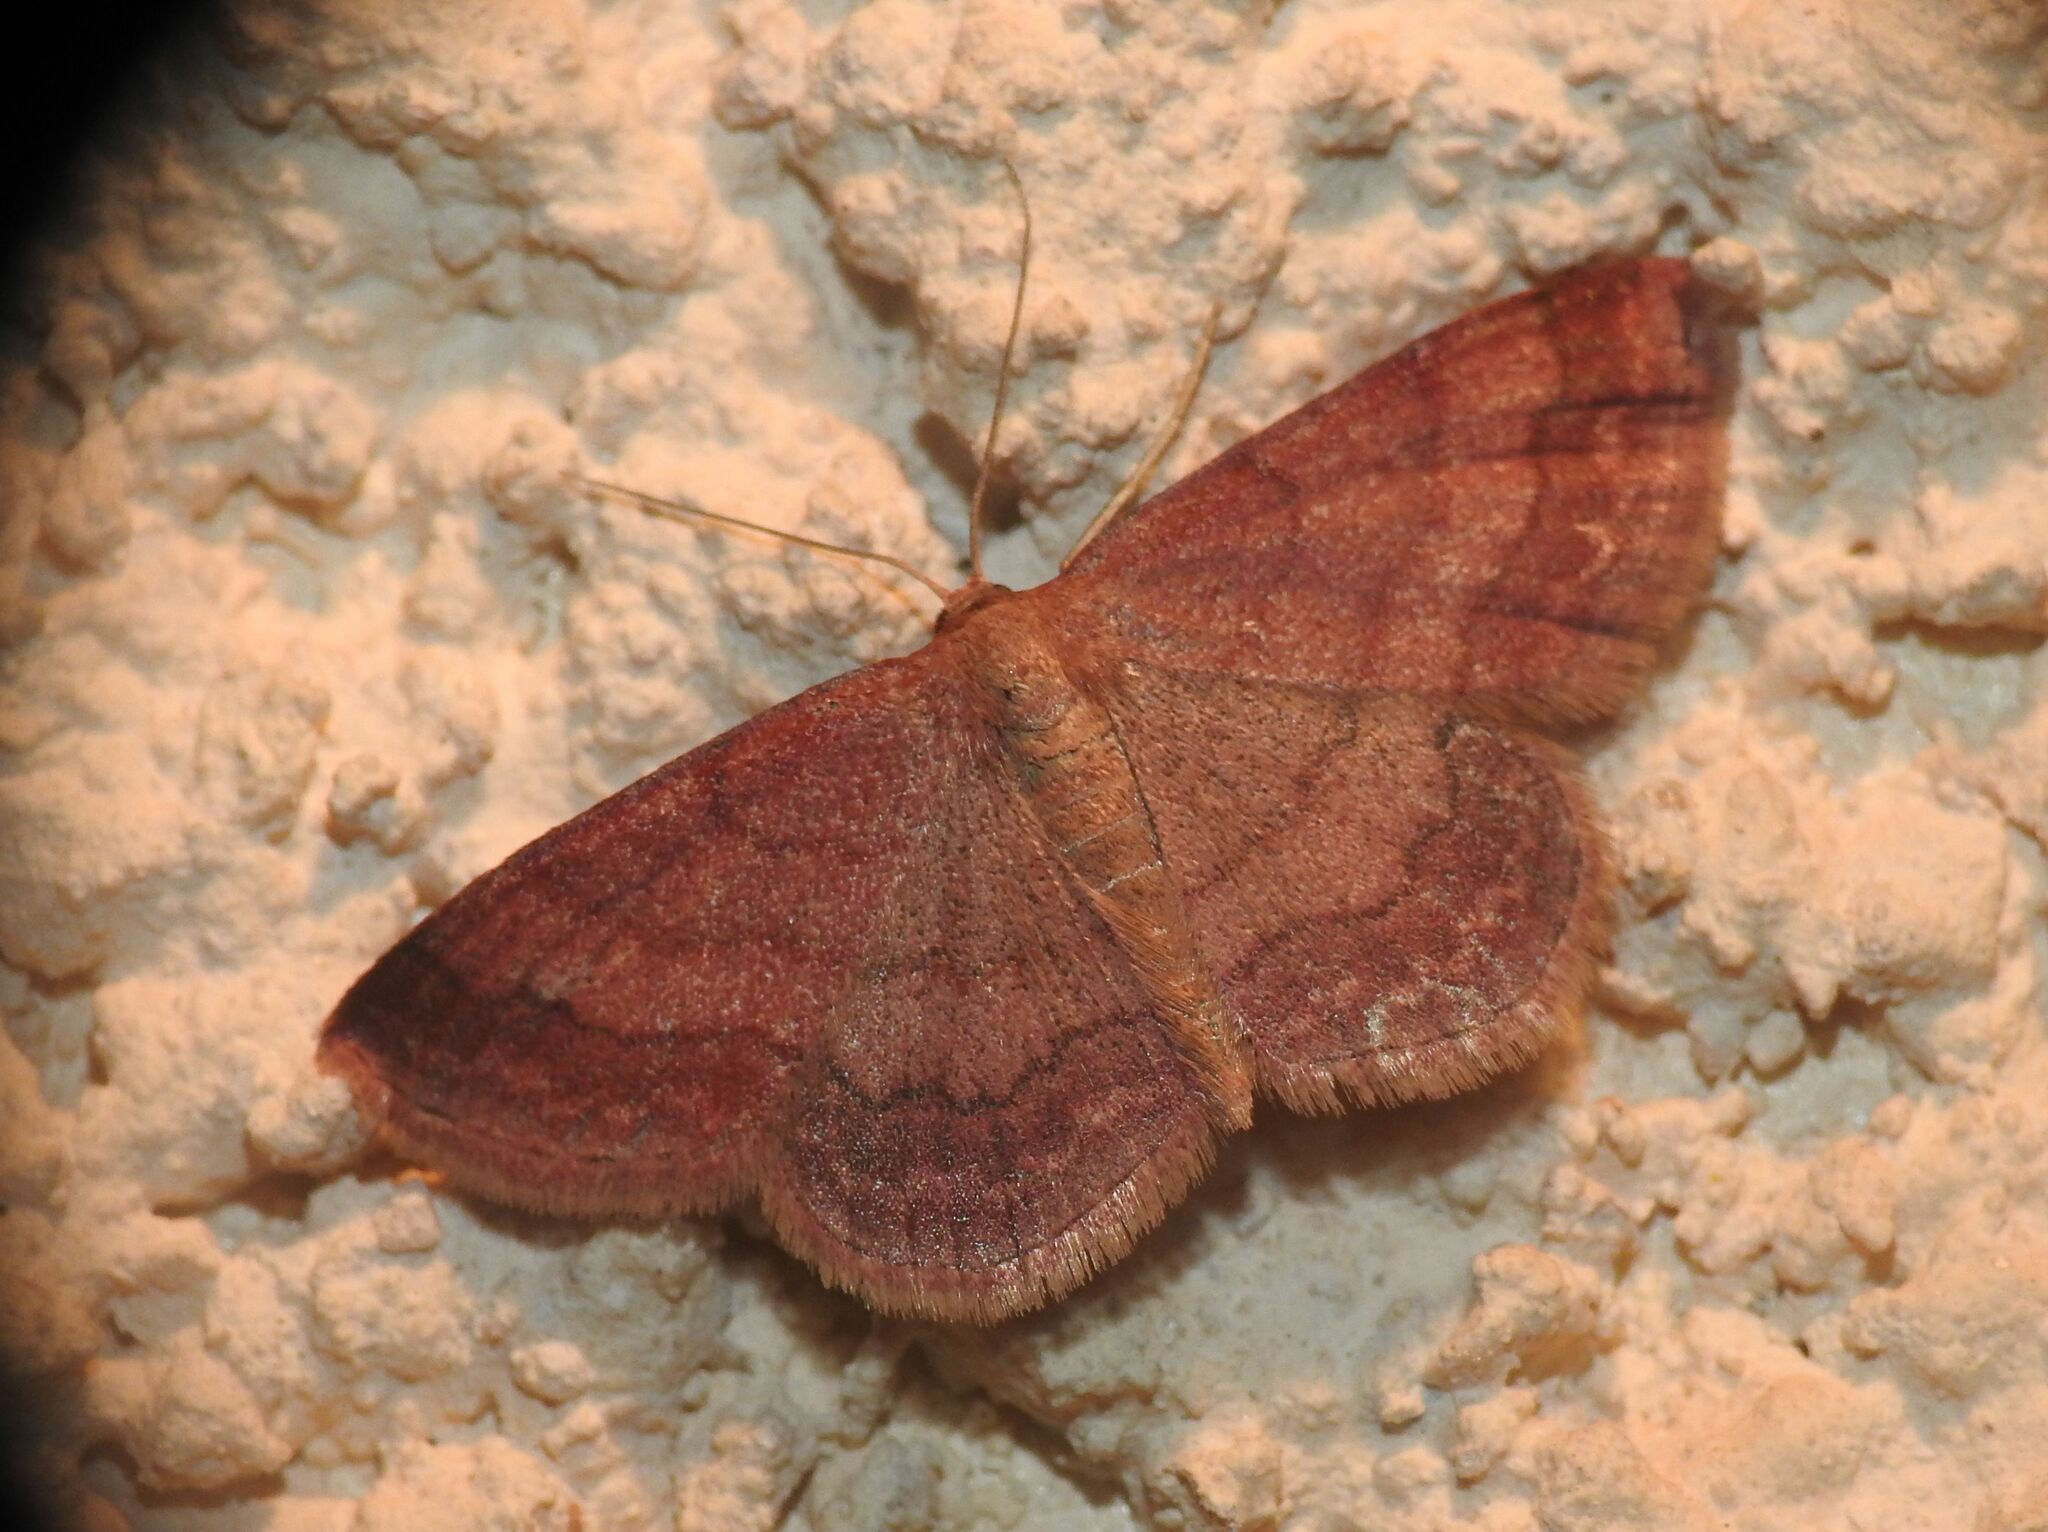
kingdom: Animalia
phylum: Arthropoda
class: Insecta
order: Lepidoptera
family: Geometridae
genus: Scopula
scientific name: Scopula rubiginata
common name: Tawny wave
